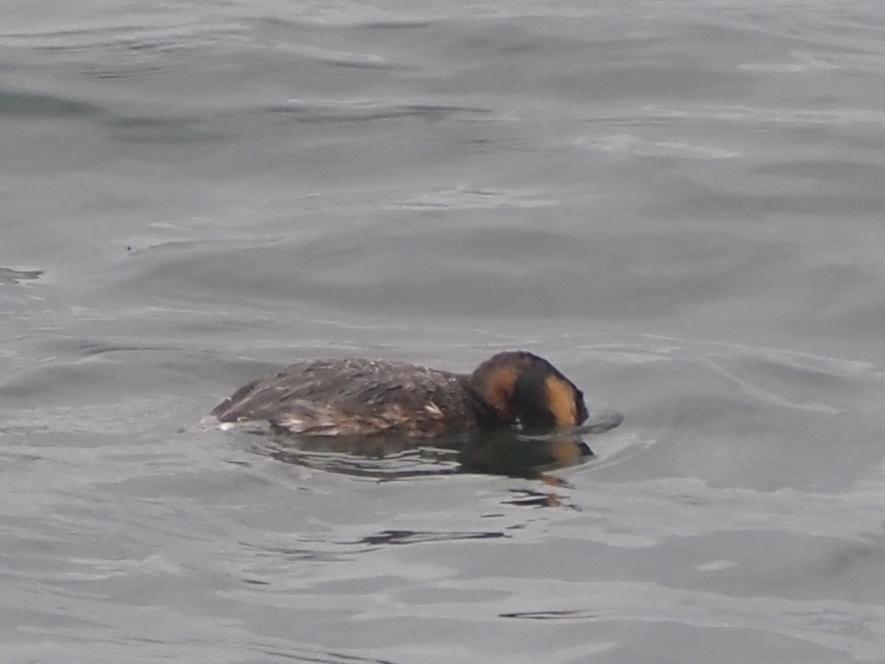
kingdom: Animalia
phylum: Chordata
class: Aves
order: Podicipediformes
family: Podicipedidae
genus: Podiceps
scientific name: Podiceps auritus
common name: Horned grebe
